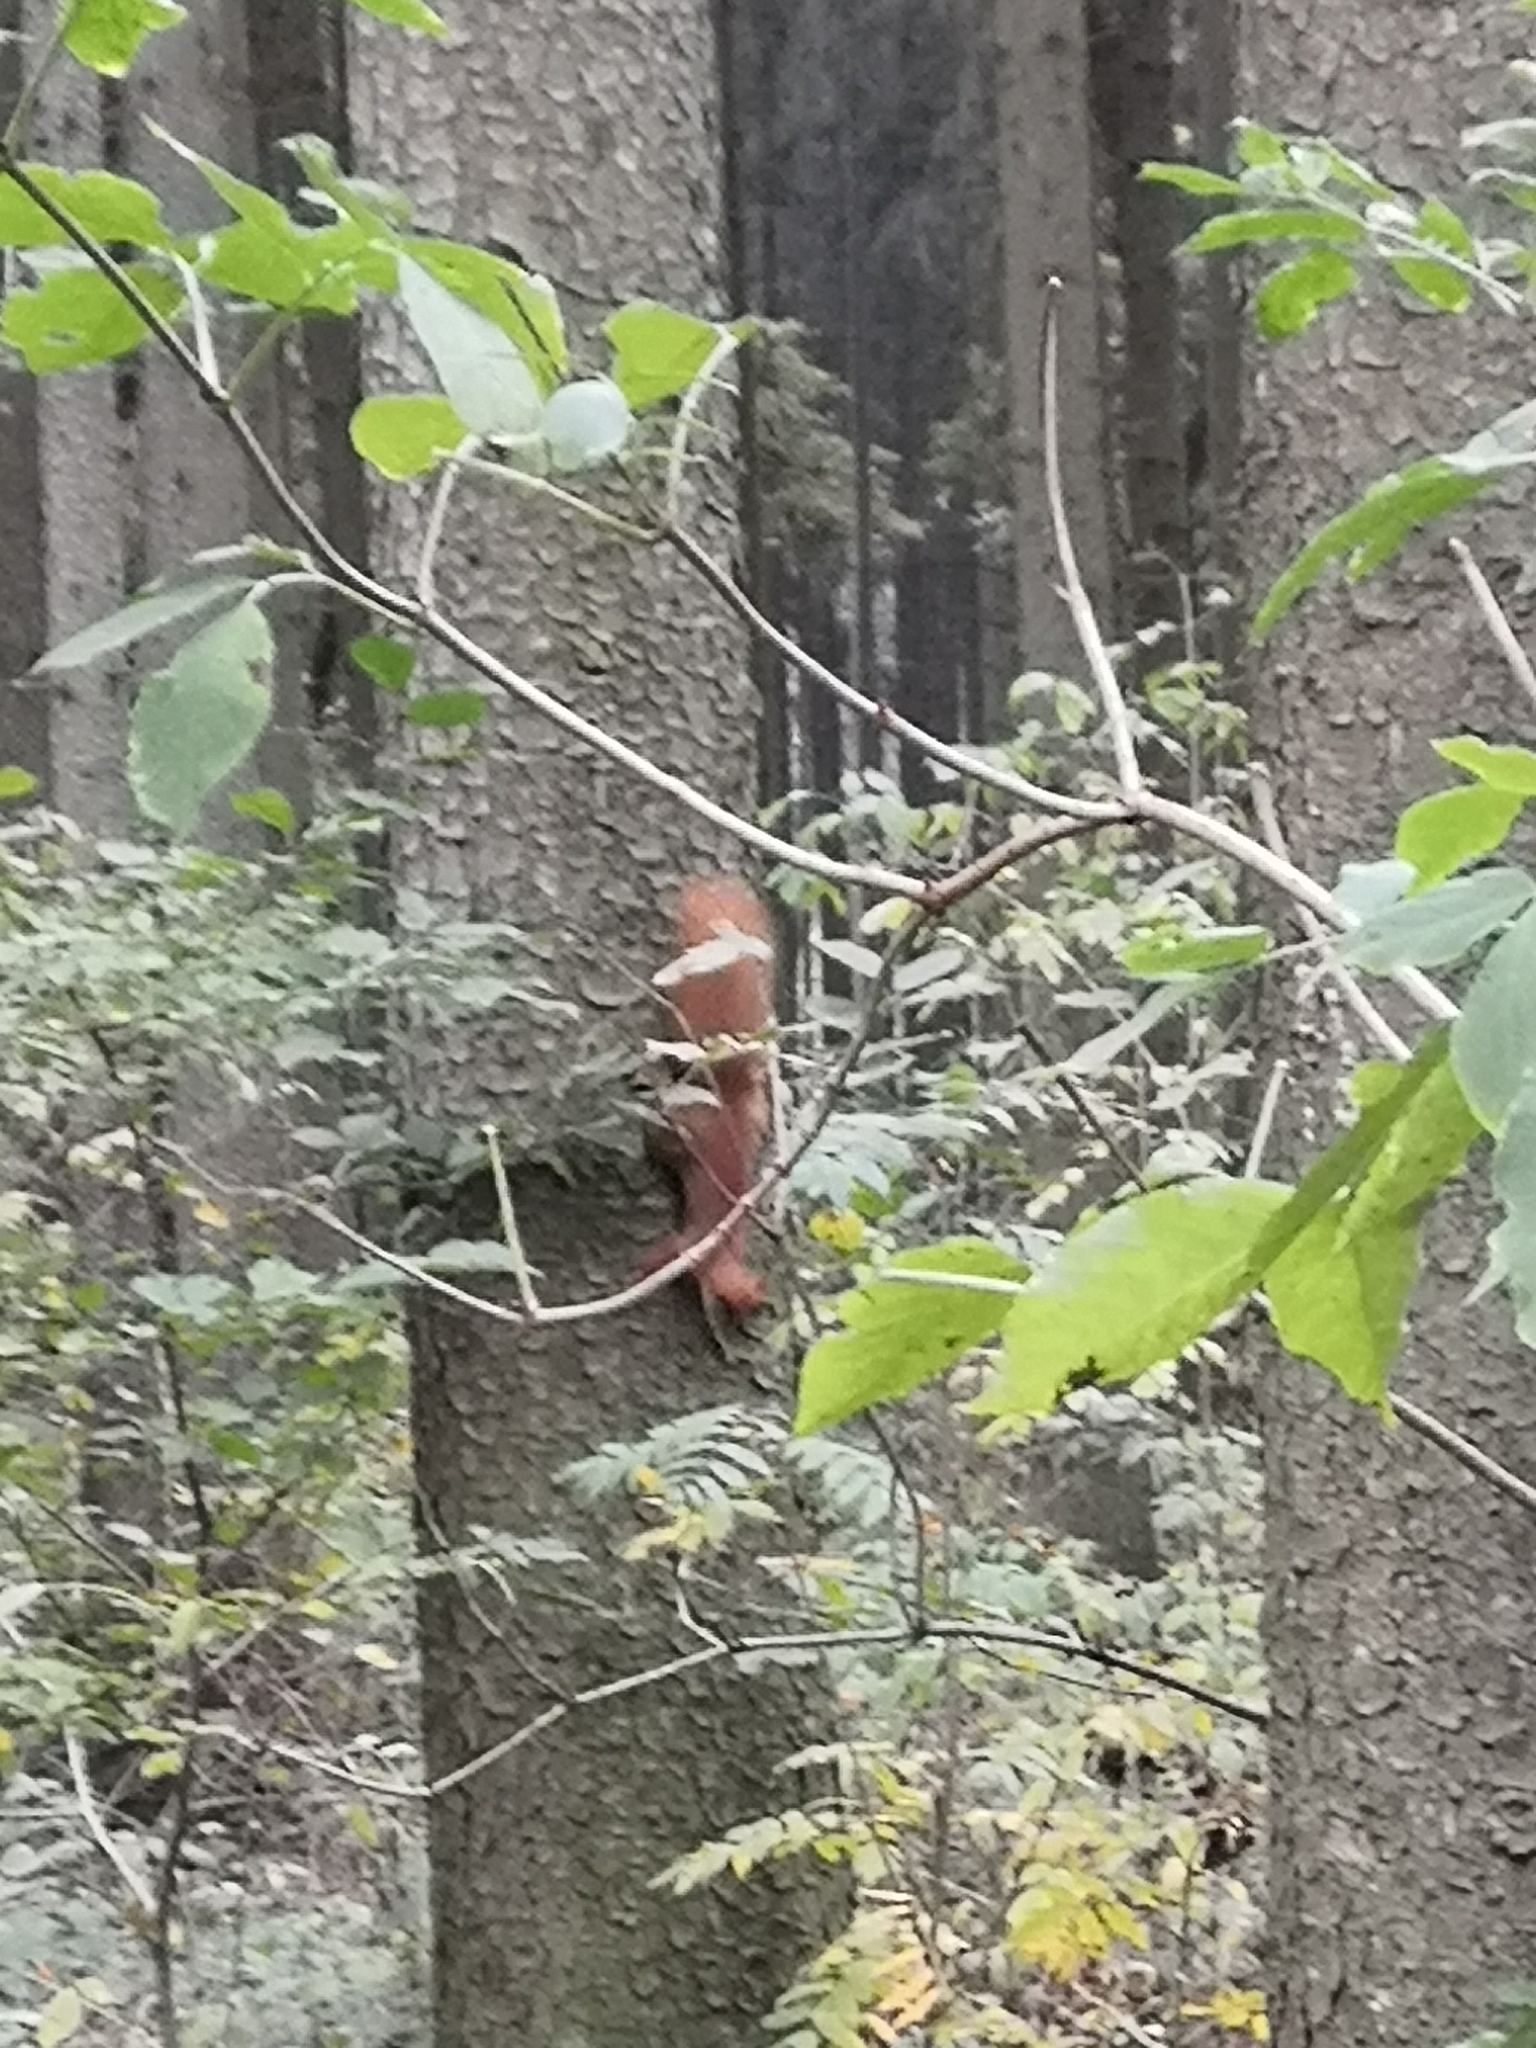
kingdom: Animalia
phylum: Chordata
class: Mammalia
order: Rodentia
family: Sciuridae
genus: Sciurus
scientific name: Sciurus vulgaris
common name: Eurasian red squirrel
